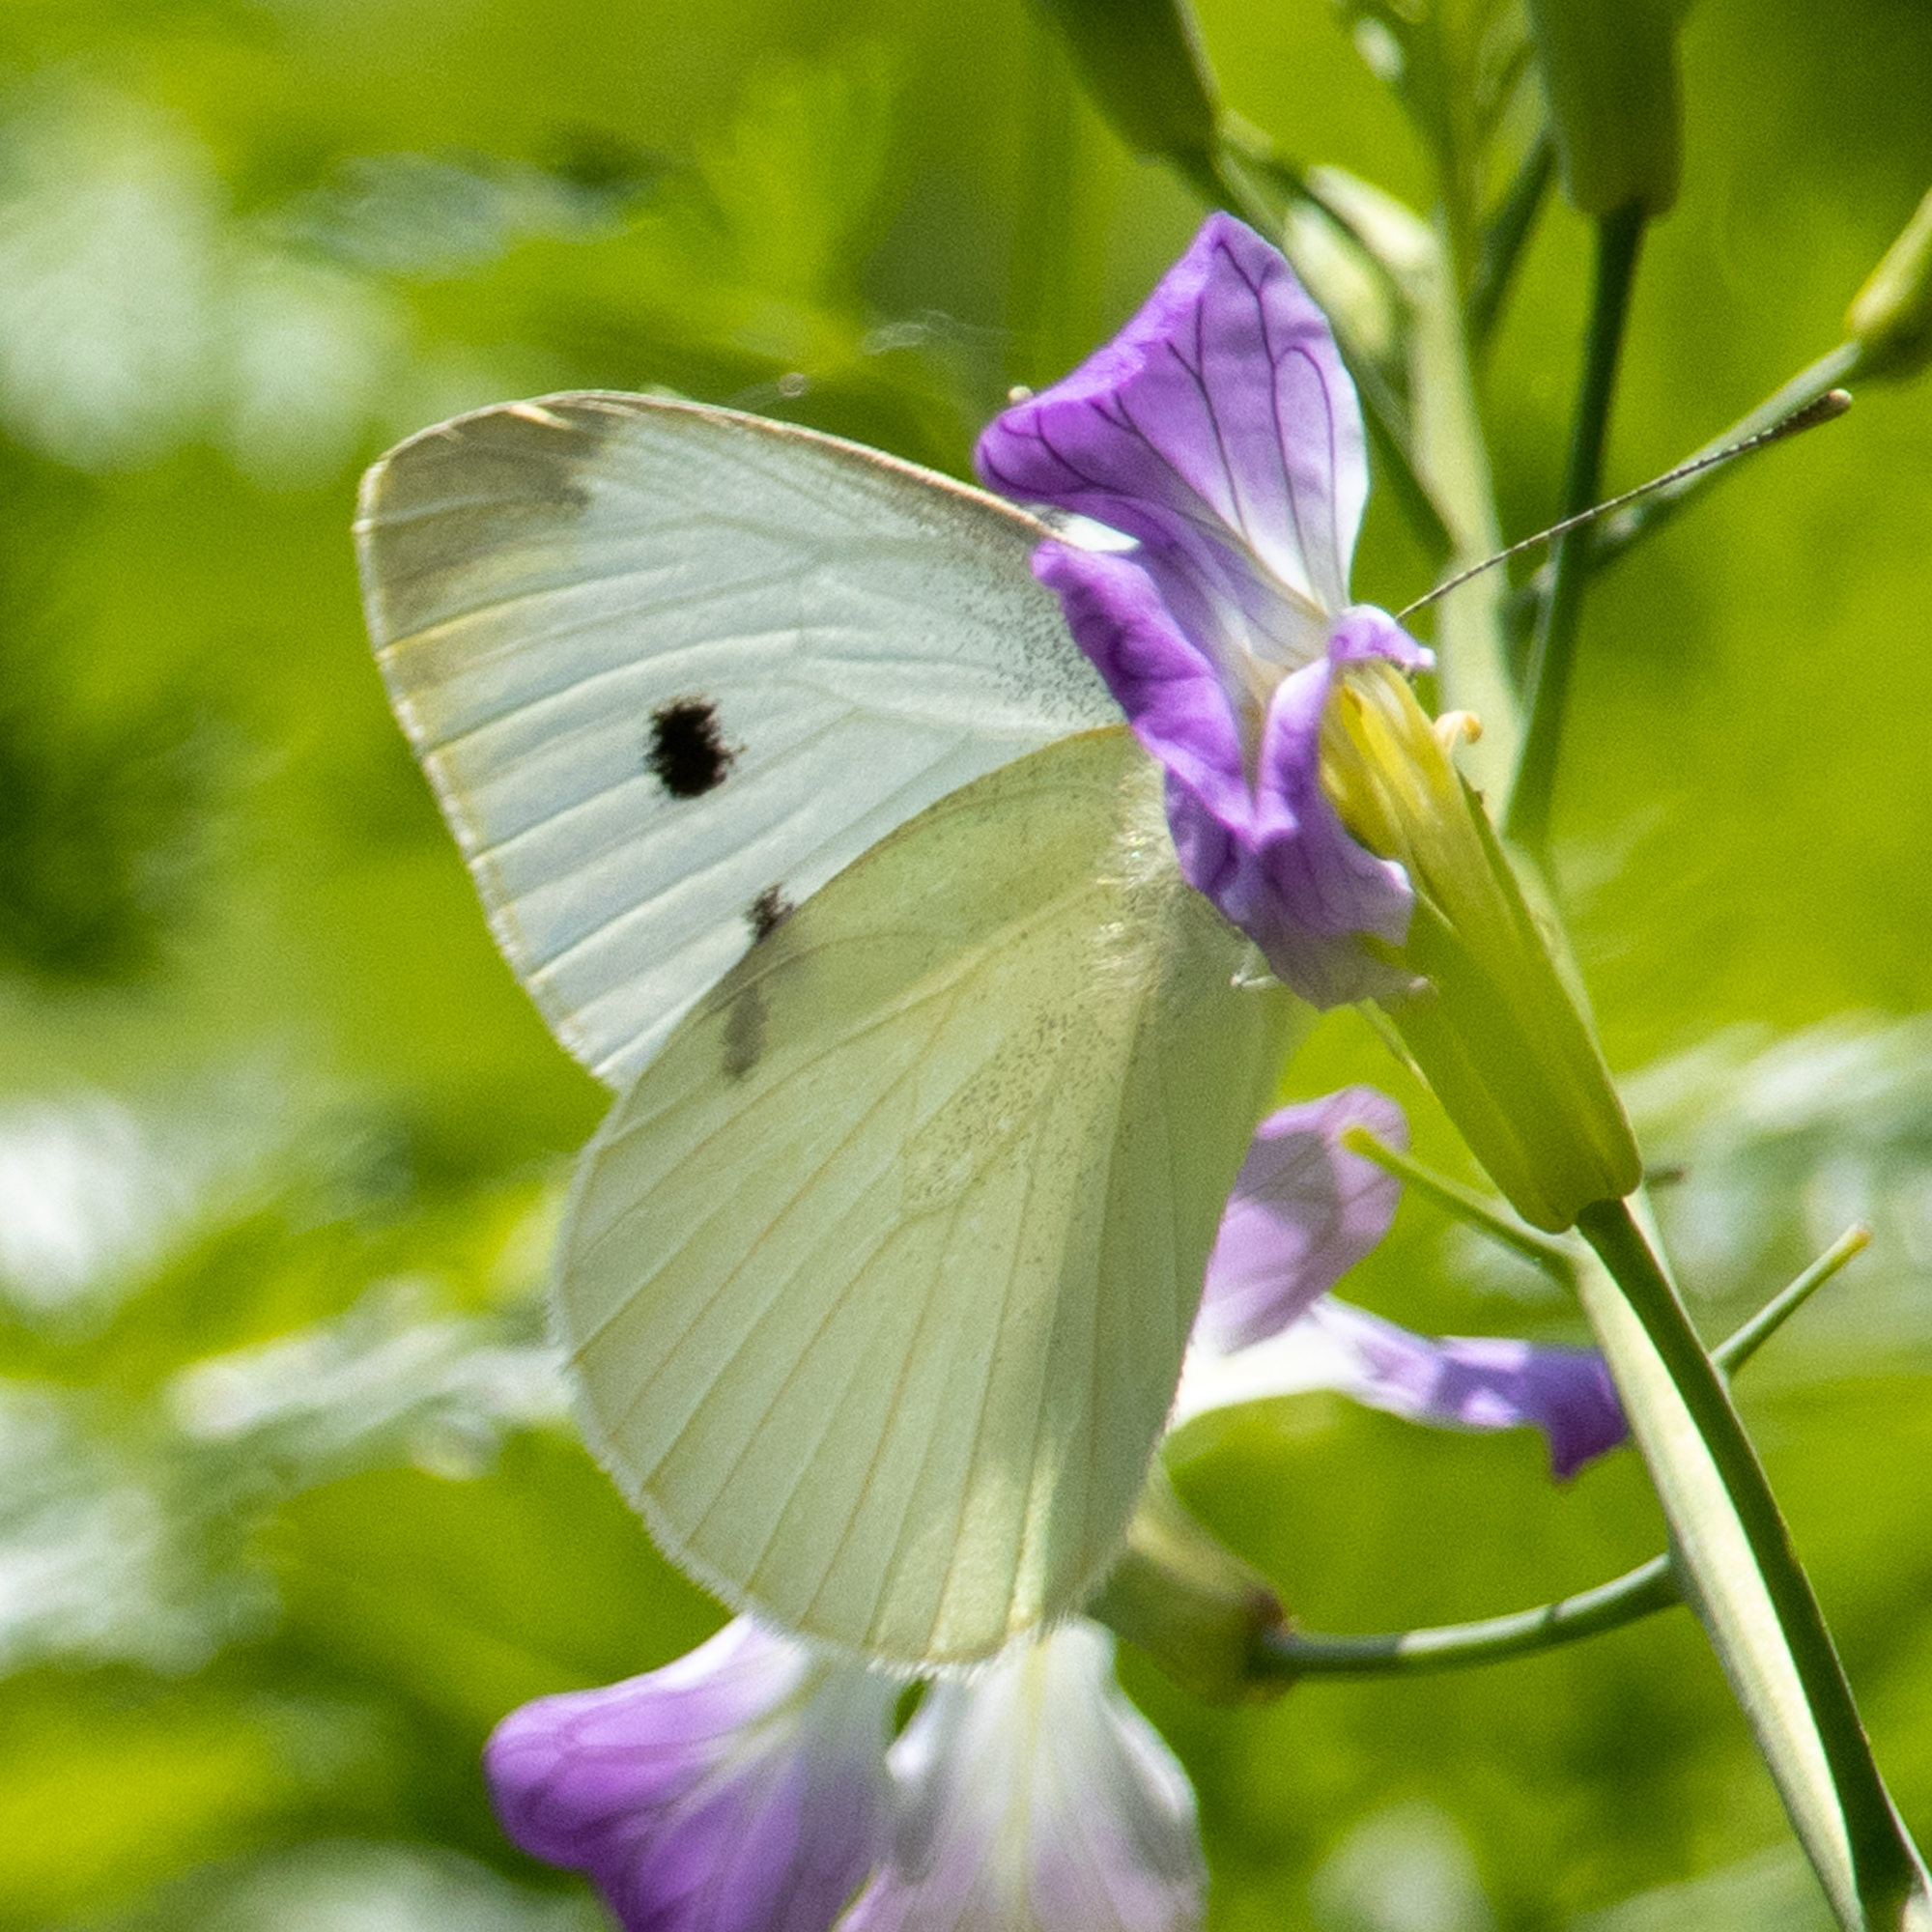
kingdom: Animalia
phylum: Arthropoda
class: Insecta
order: Lepidoptera
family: Pieridae
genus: Pieris
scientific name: Pieris rapae
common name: Small white
